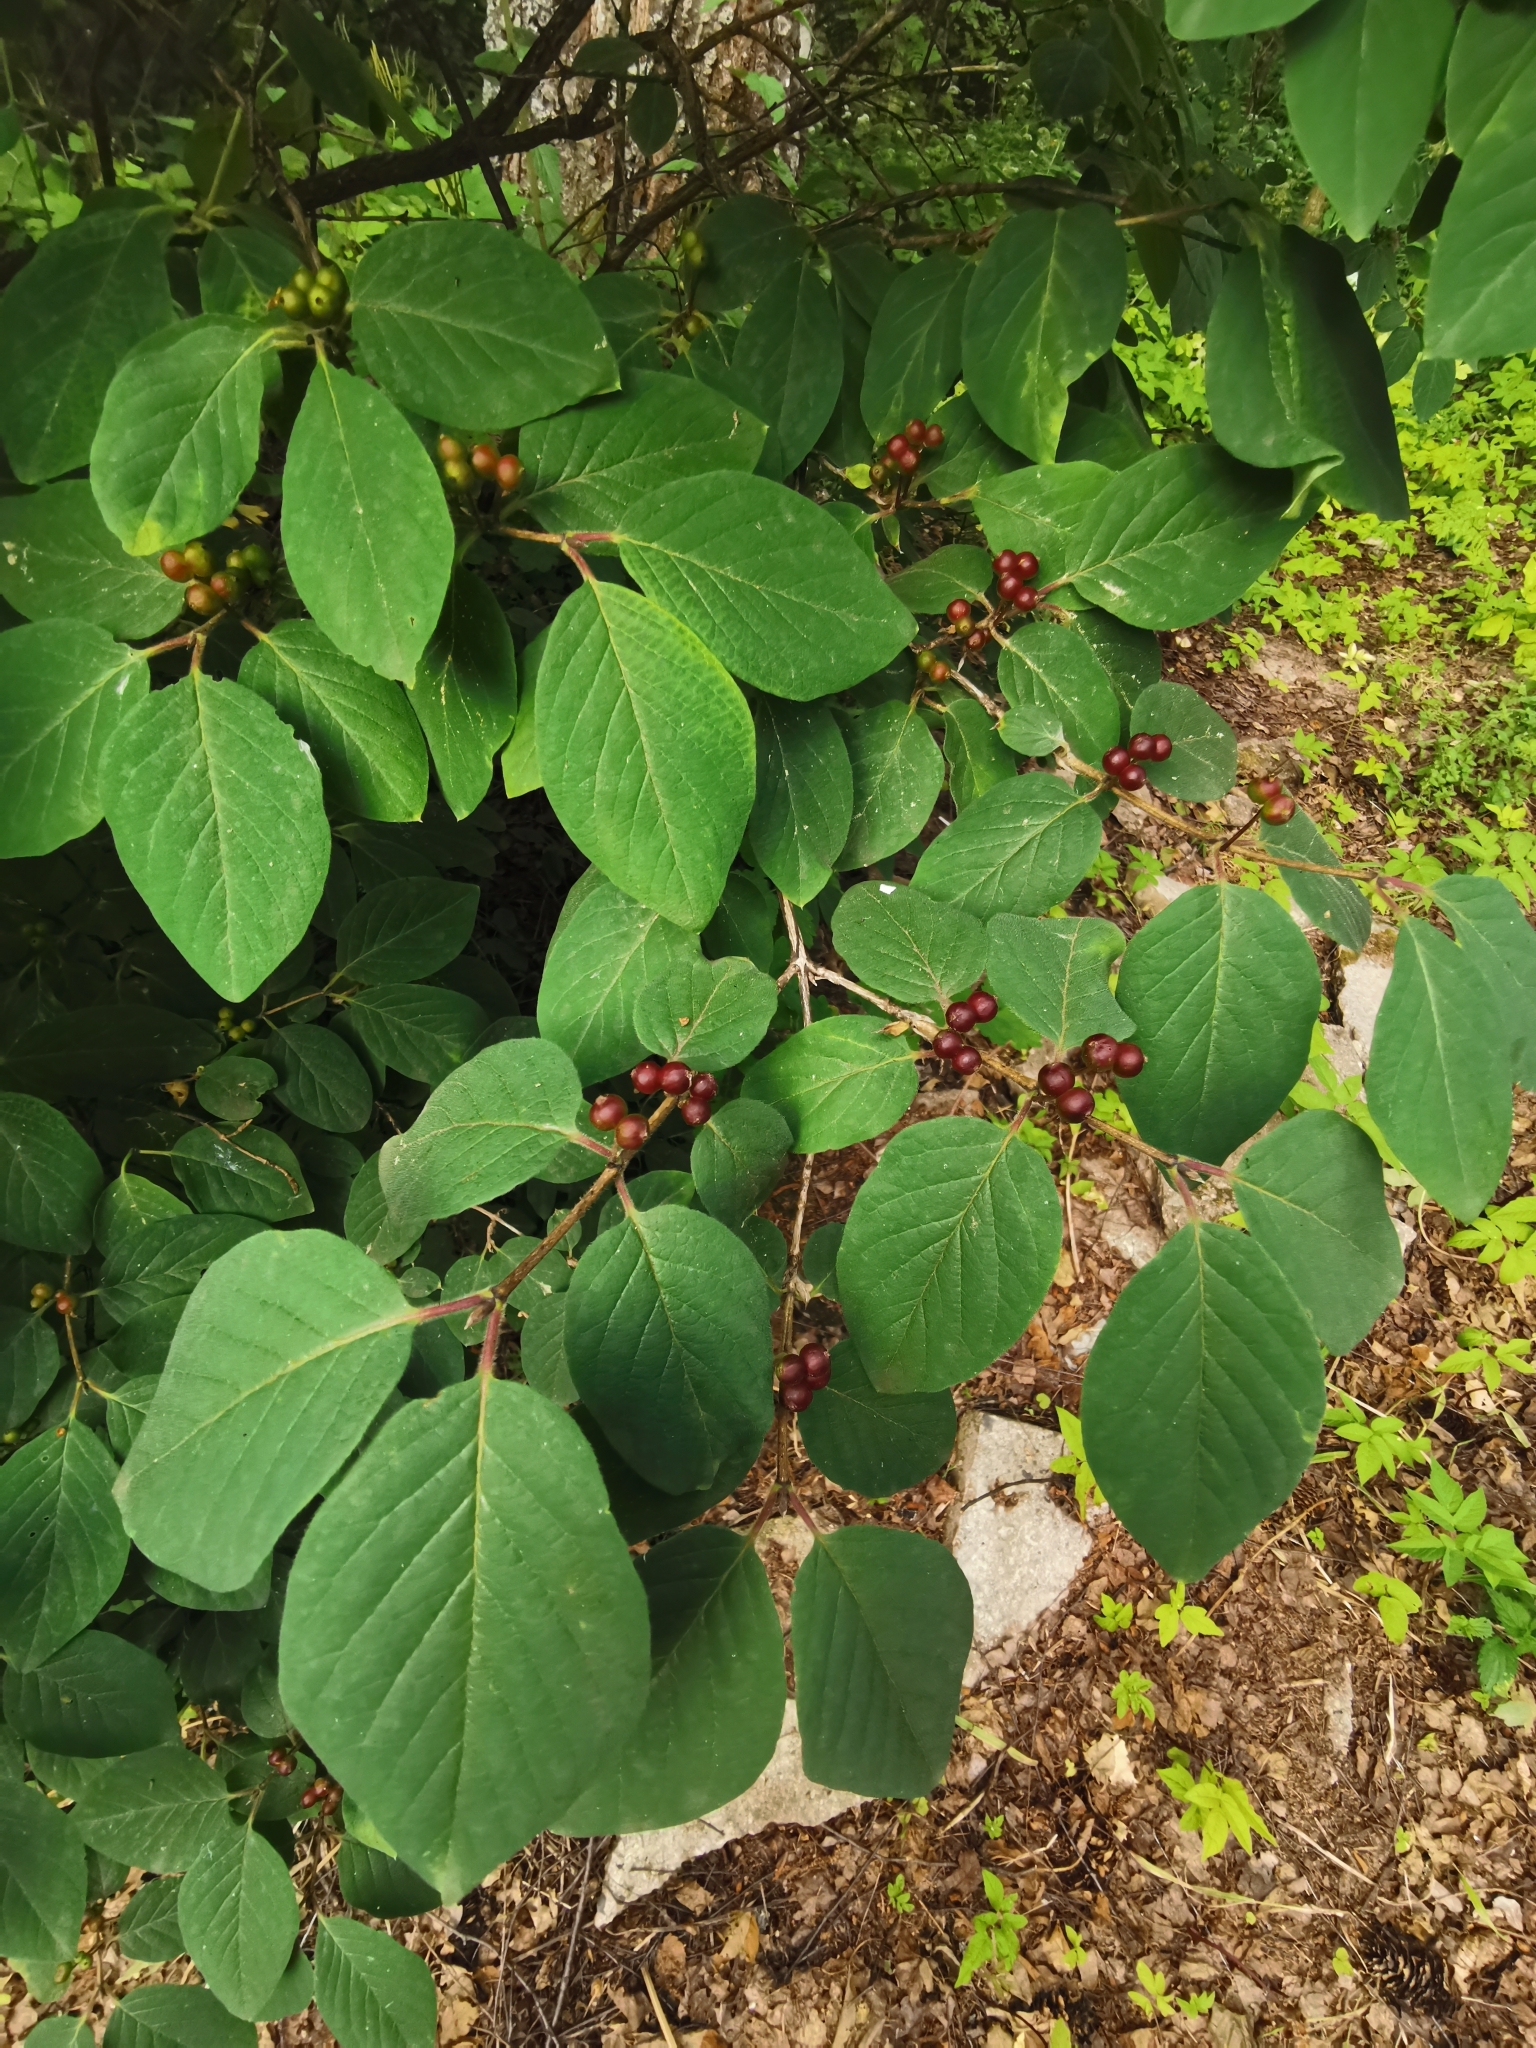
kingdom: Plantae
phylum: Tracheophyta
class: Magnoliopsida
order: Dipsacales
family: Caprifoliaceae
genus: Lonicera
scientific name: Lonicera xylosteum
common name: Fly honeysuckle
